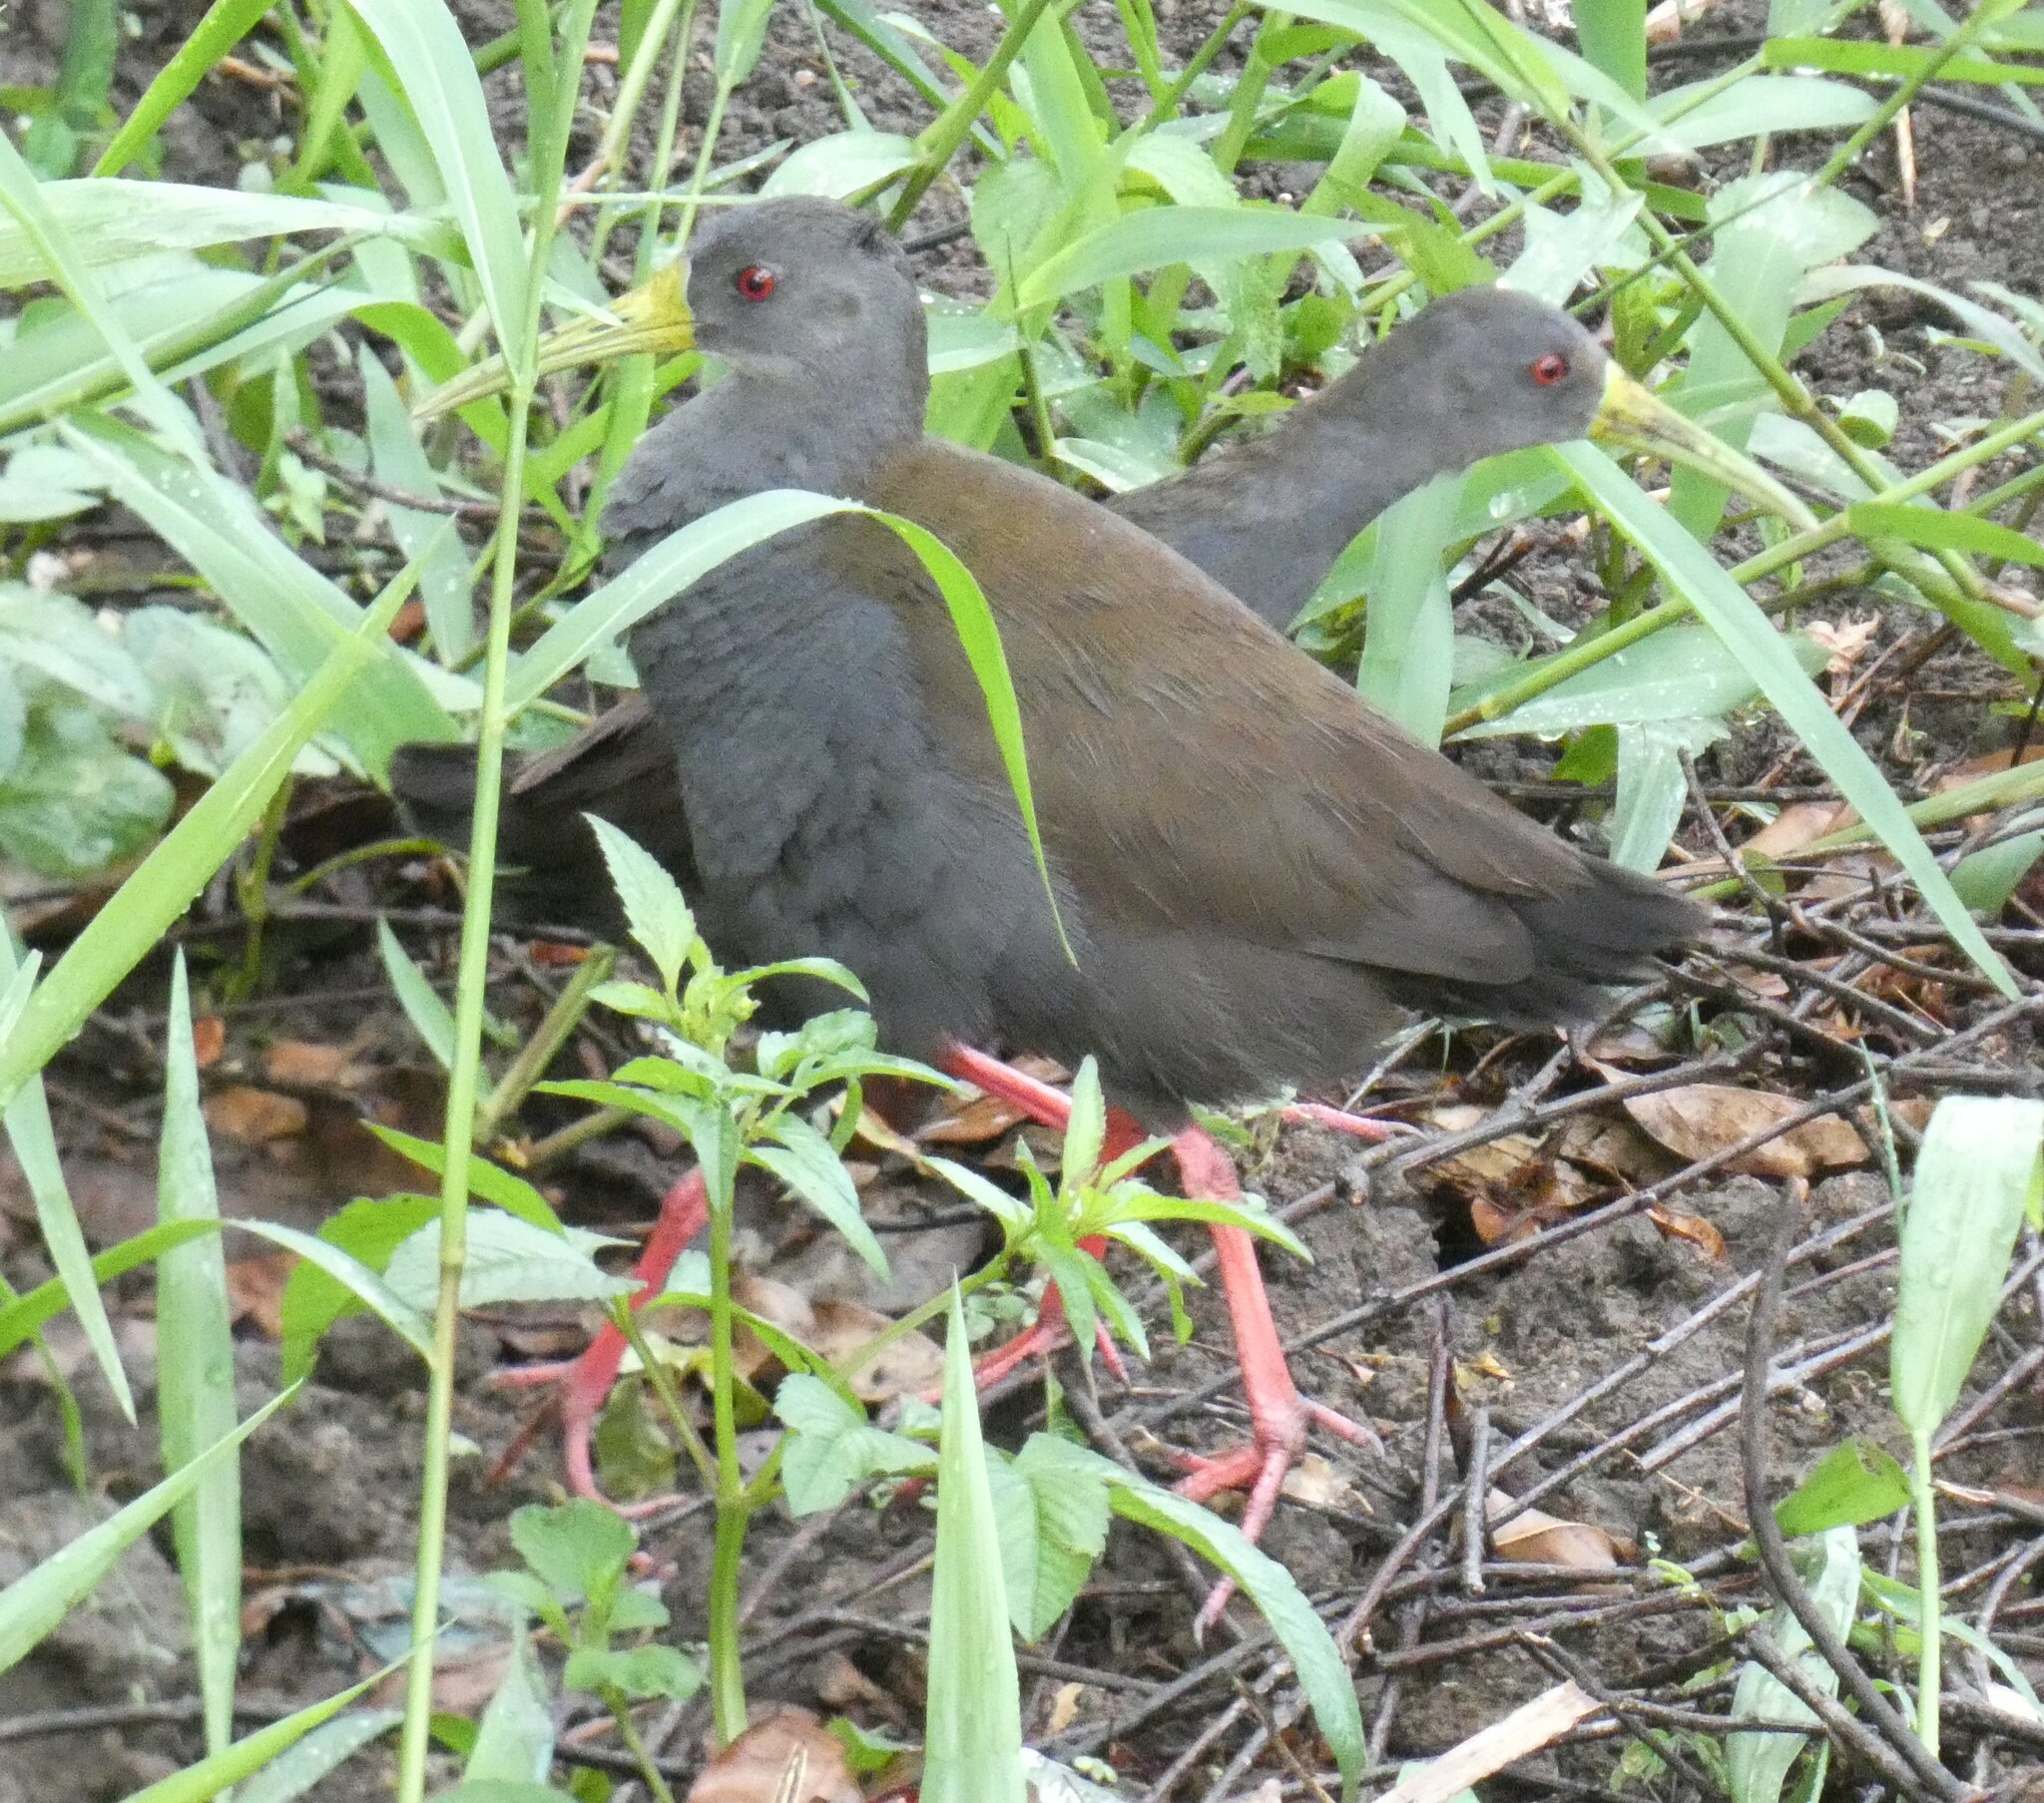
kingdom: Animalia
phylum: Chordata
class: Aves
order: Gruiformes
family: Rallidae
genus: Pardirallus
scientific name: Pardirallus nigricans
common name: Blackish rail
